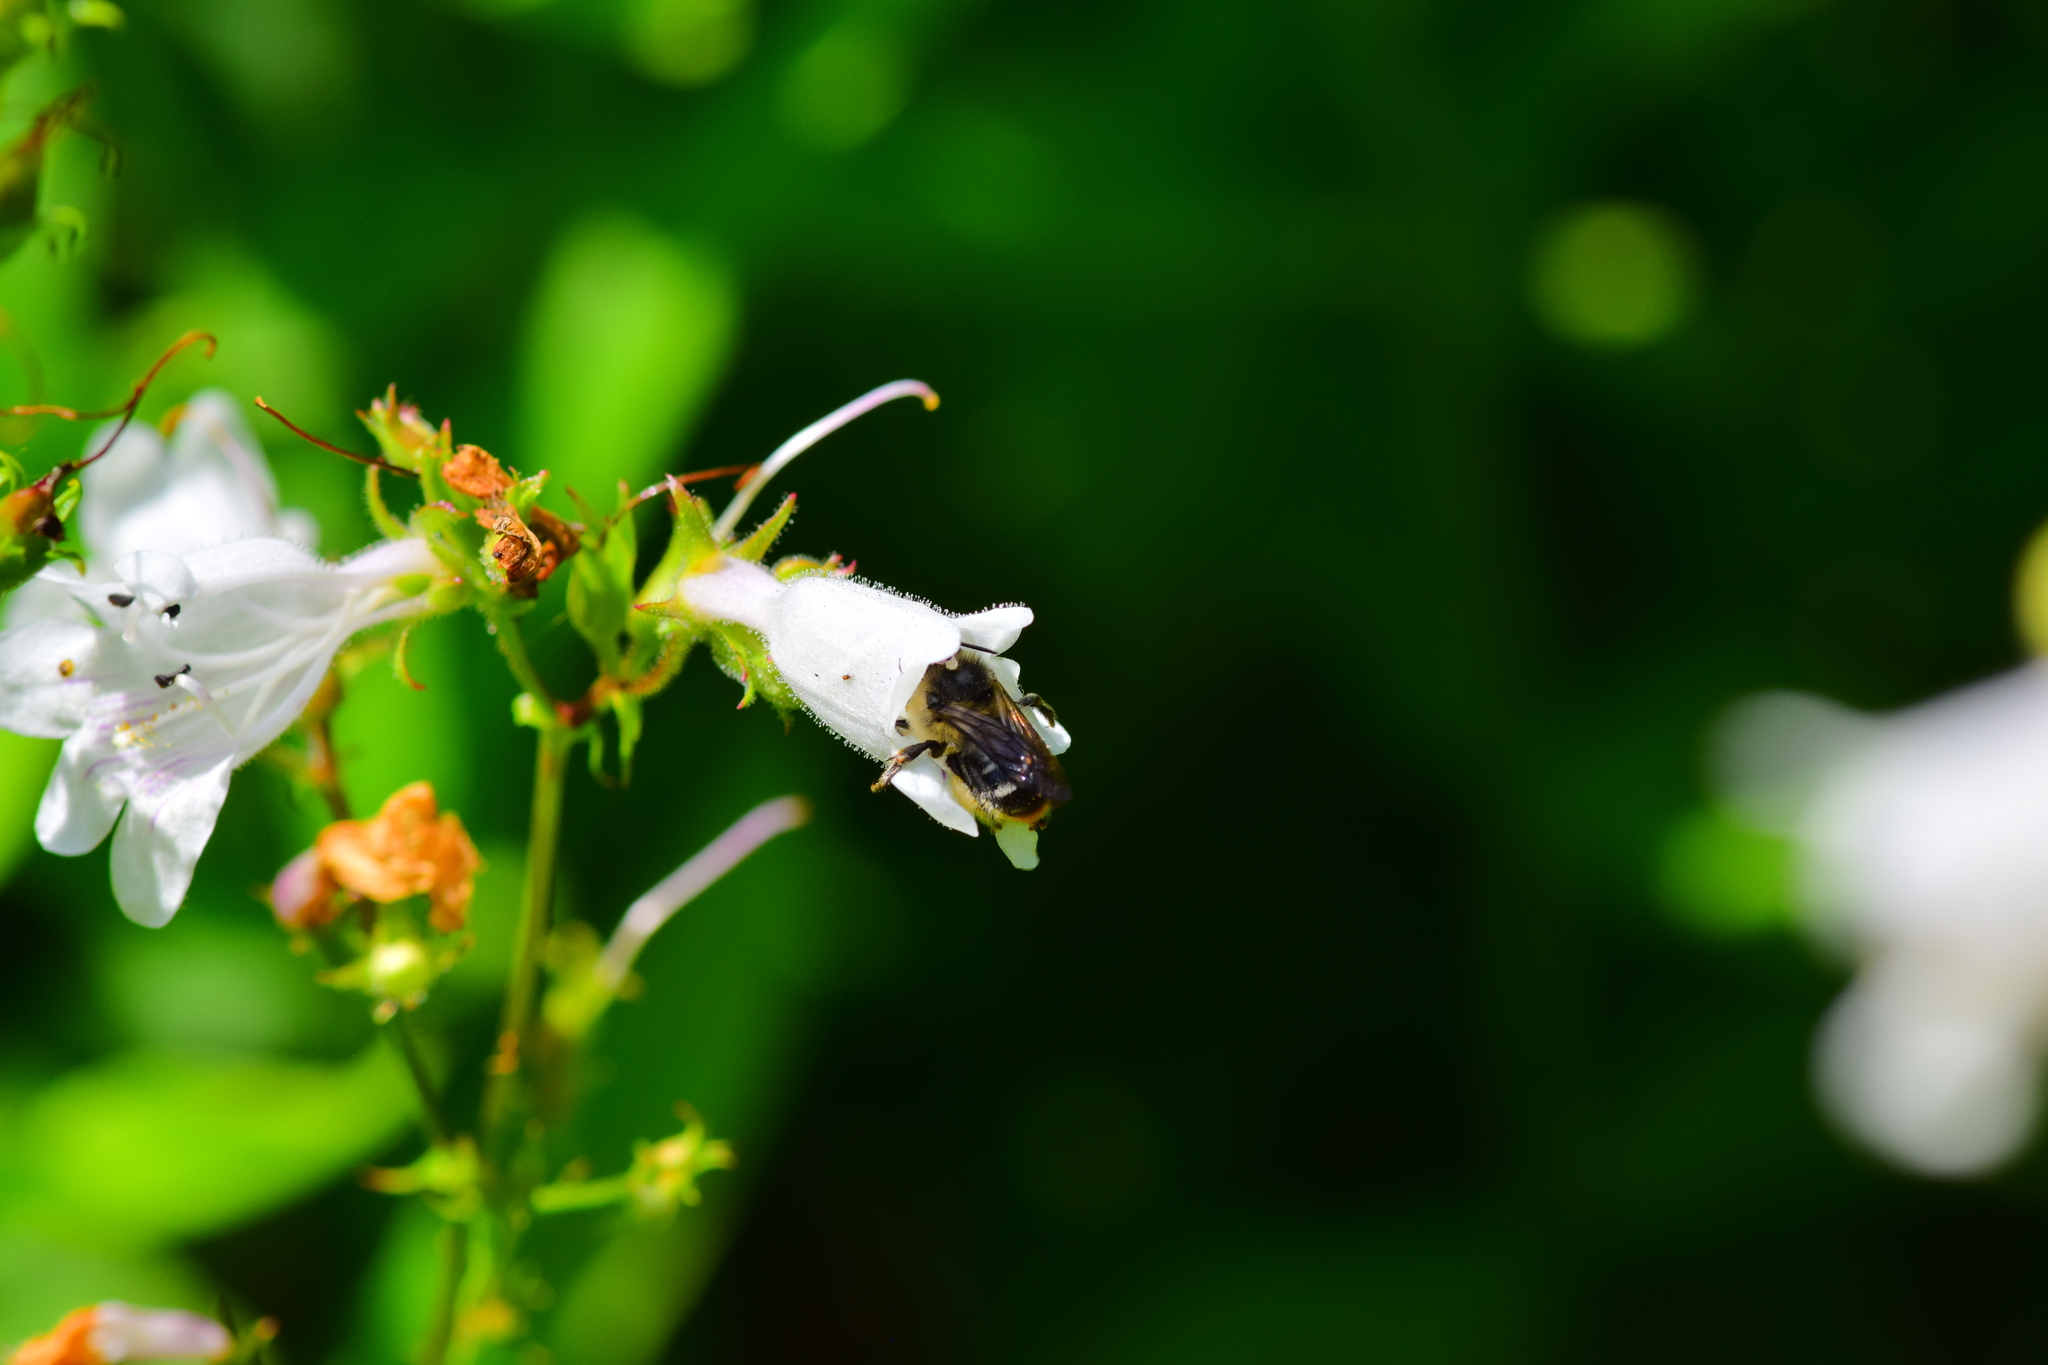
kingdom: Animalia
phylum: Arthropoda
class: Insecta
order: Hymenoptera
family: Apidae
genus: Anthophora
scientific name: Anthophora terminalis
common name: Orange-tipped wood-digger bee
